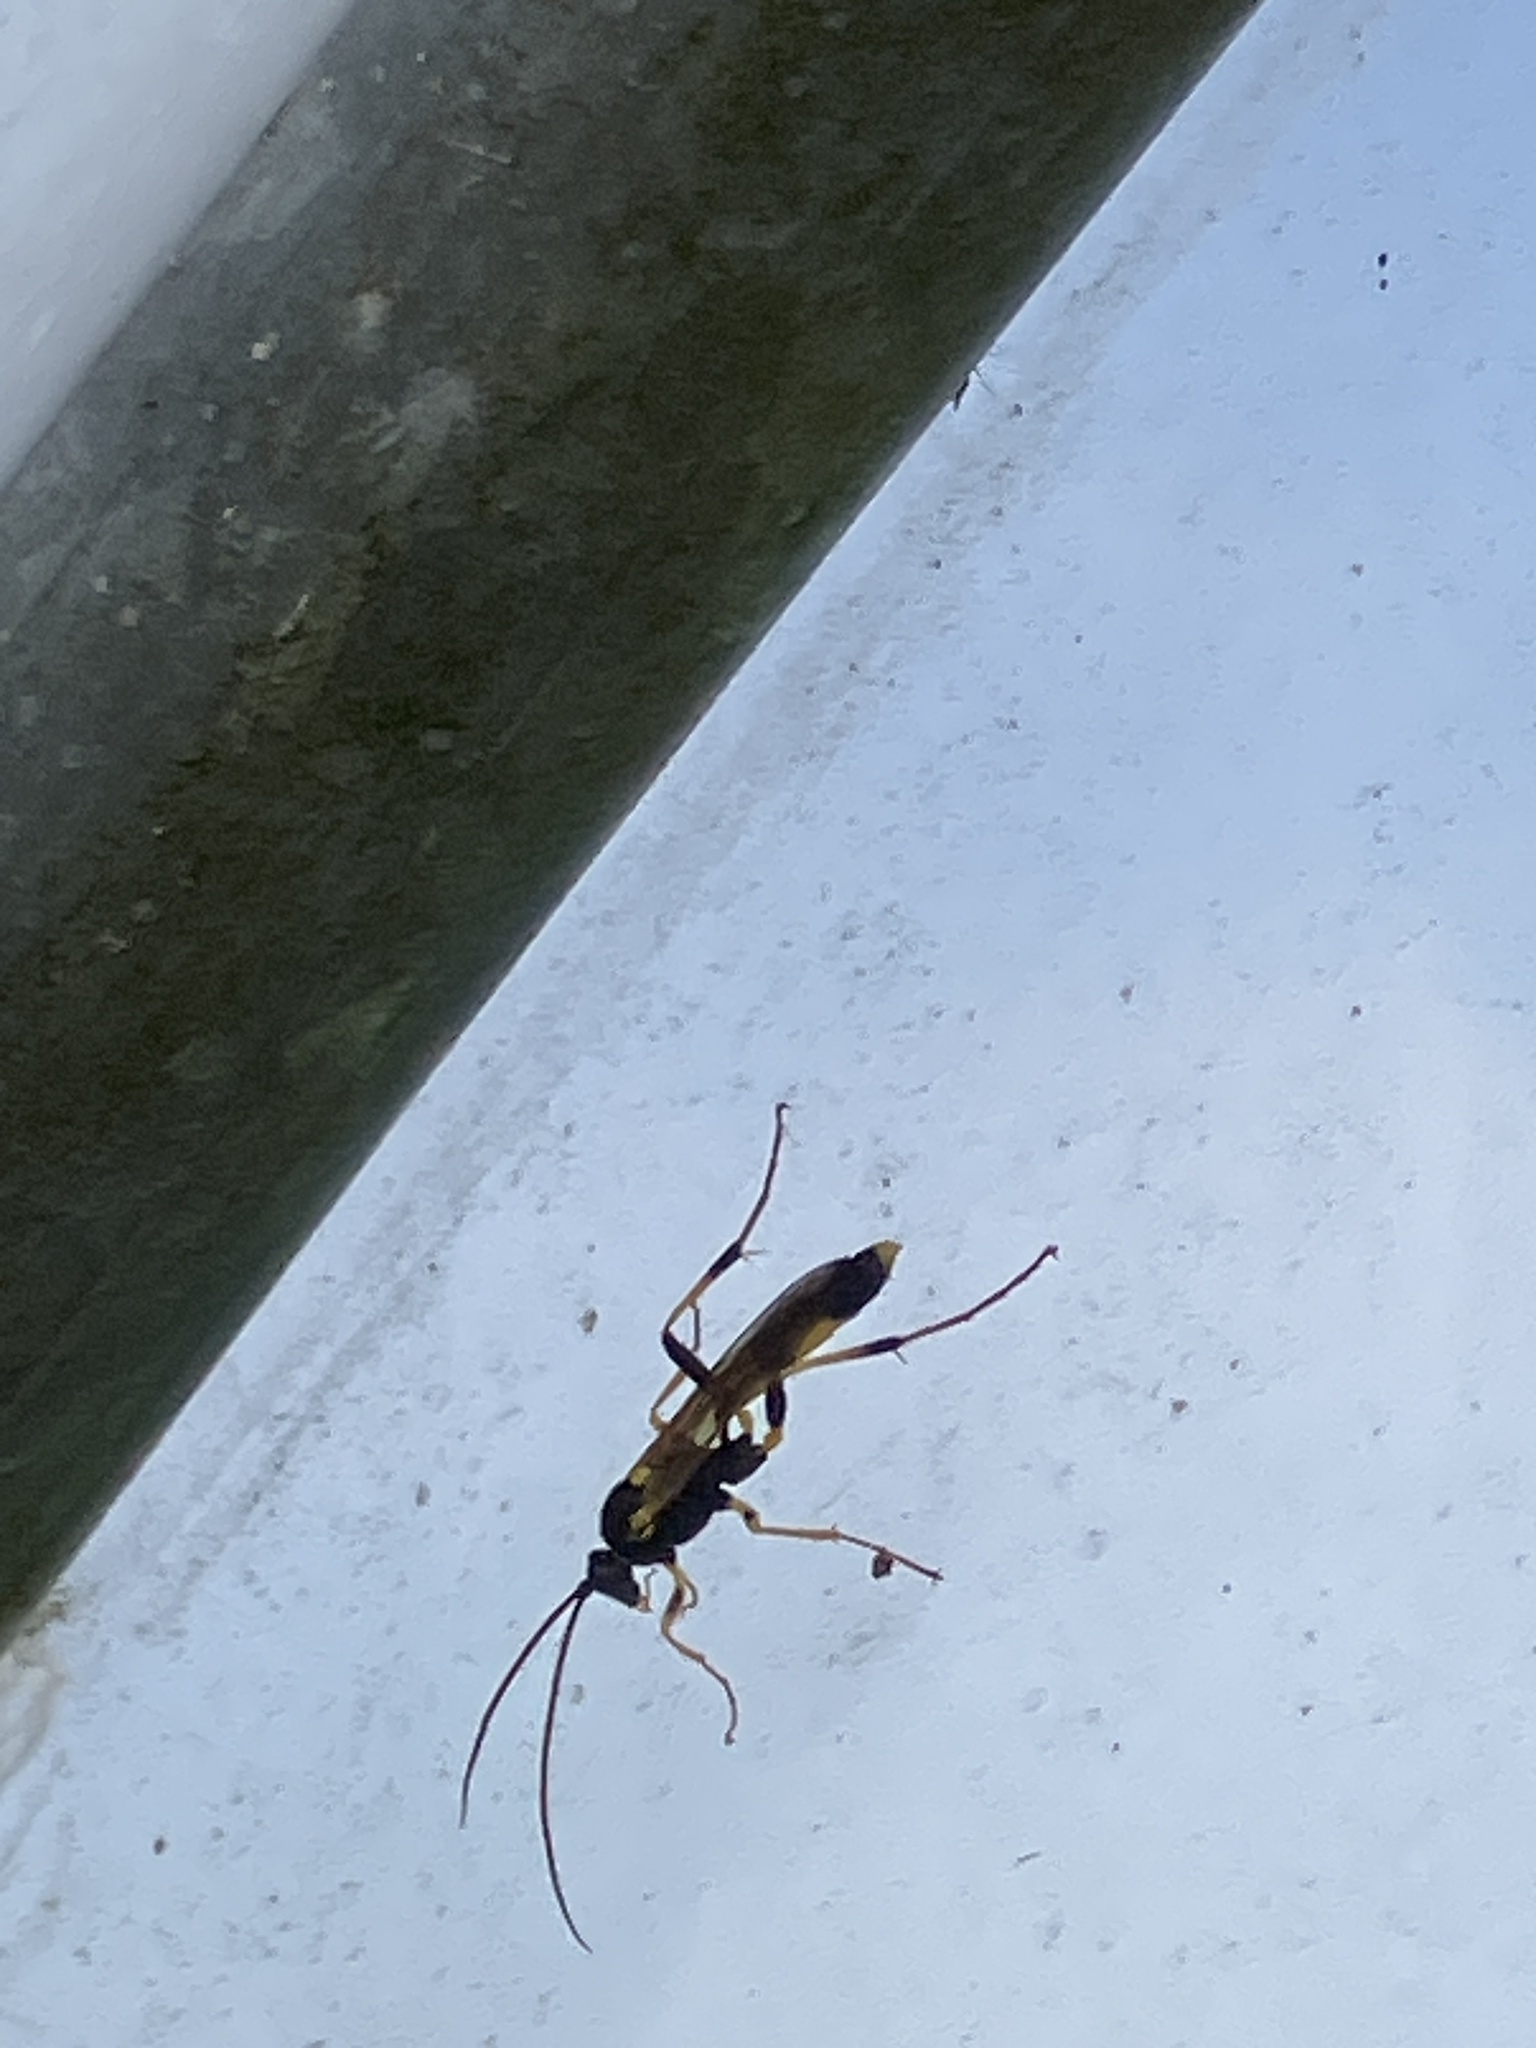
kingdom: Animalia
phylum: Arthropoda
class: Insecta
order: Hymenoptera
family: Ichneumonidae
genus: Amblyteles
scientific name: Amblyteles armatorius
